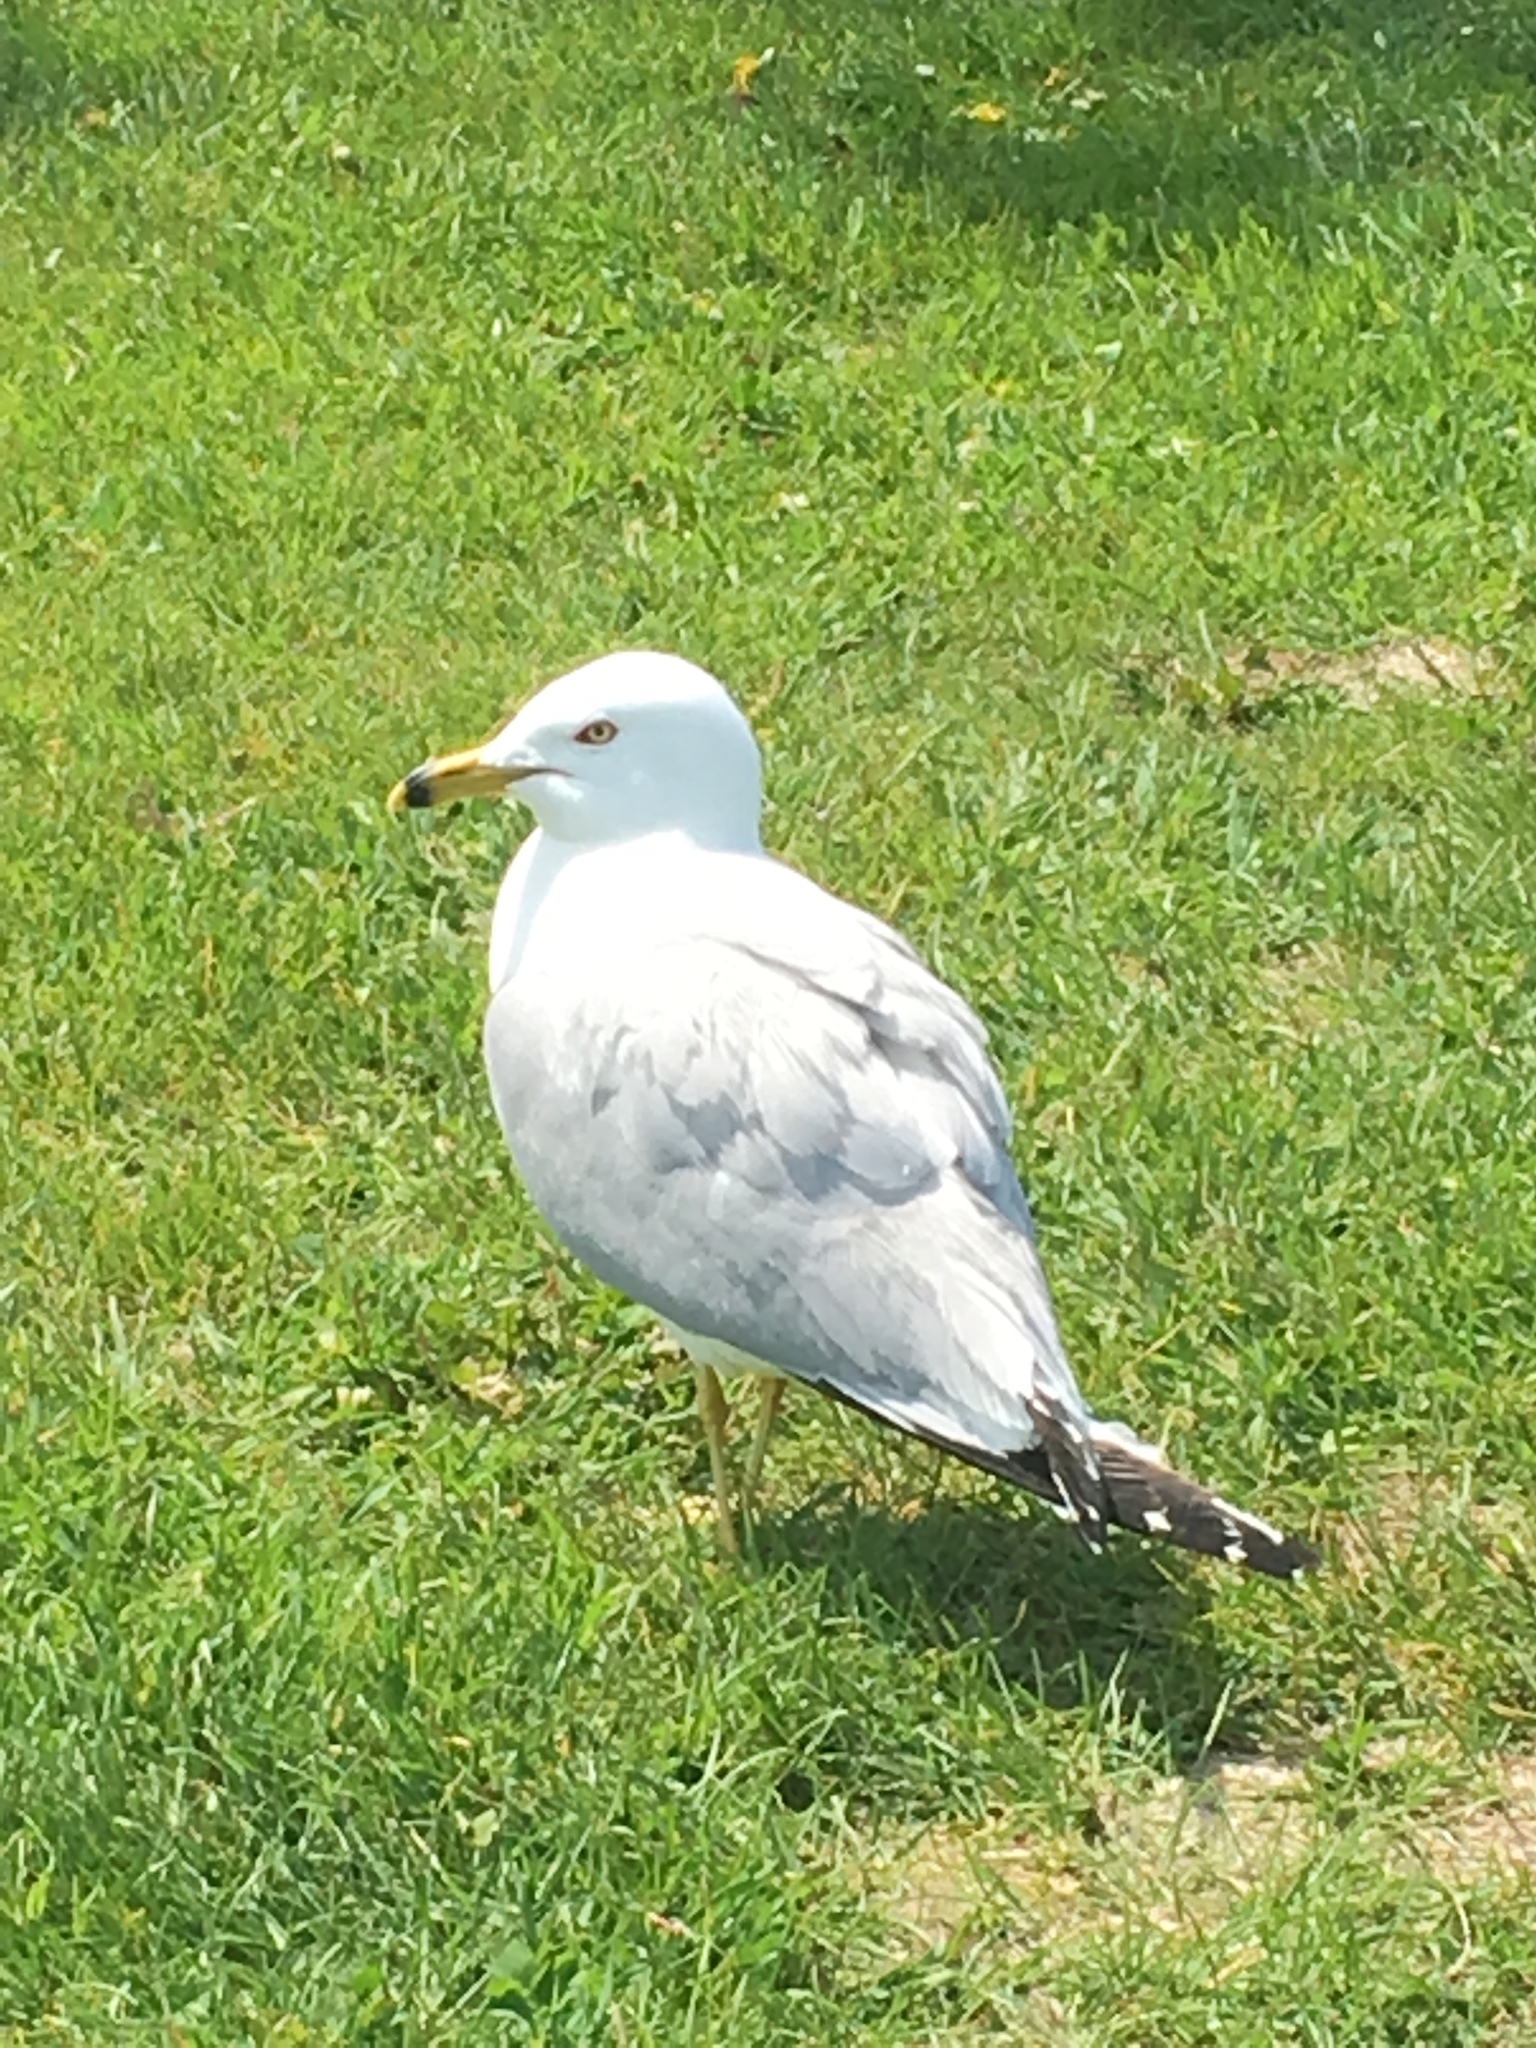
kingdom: Animalia
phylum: Chordata
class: Aves
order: Charadriiformes
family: Laridae
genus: Larus
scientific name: Larus delawarensis
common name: Ring-billed gull
